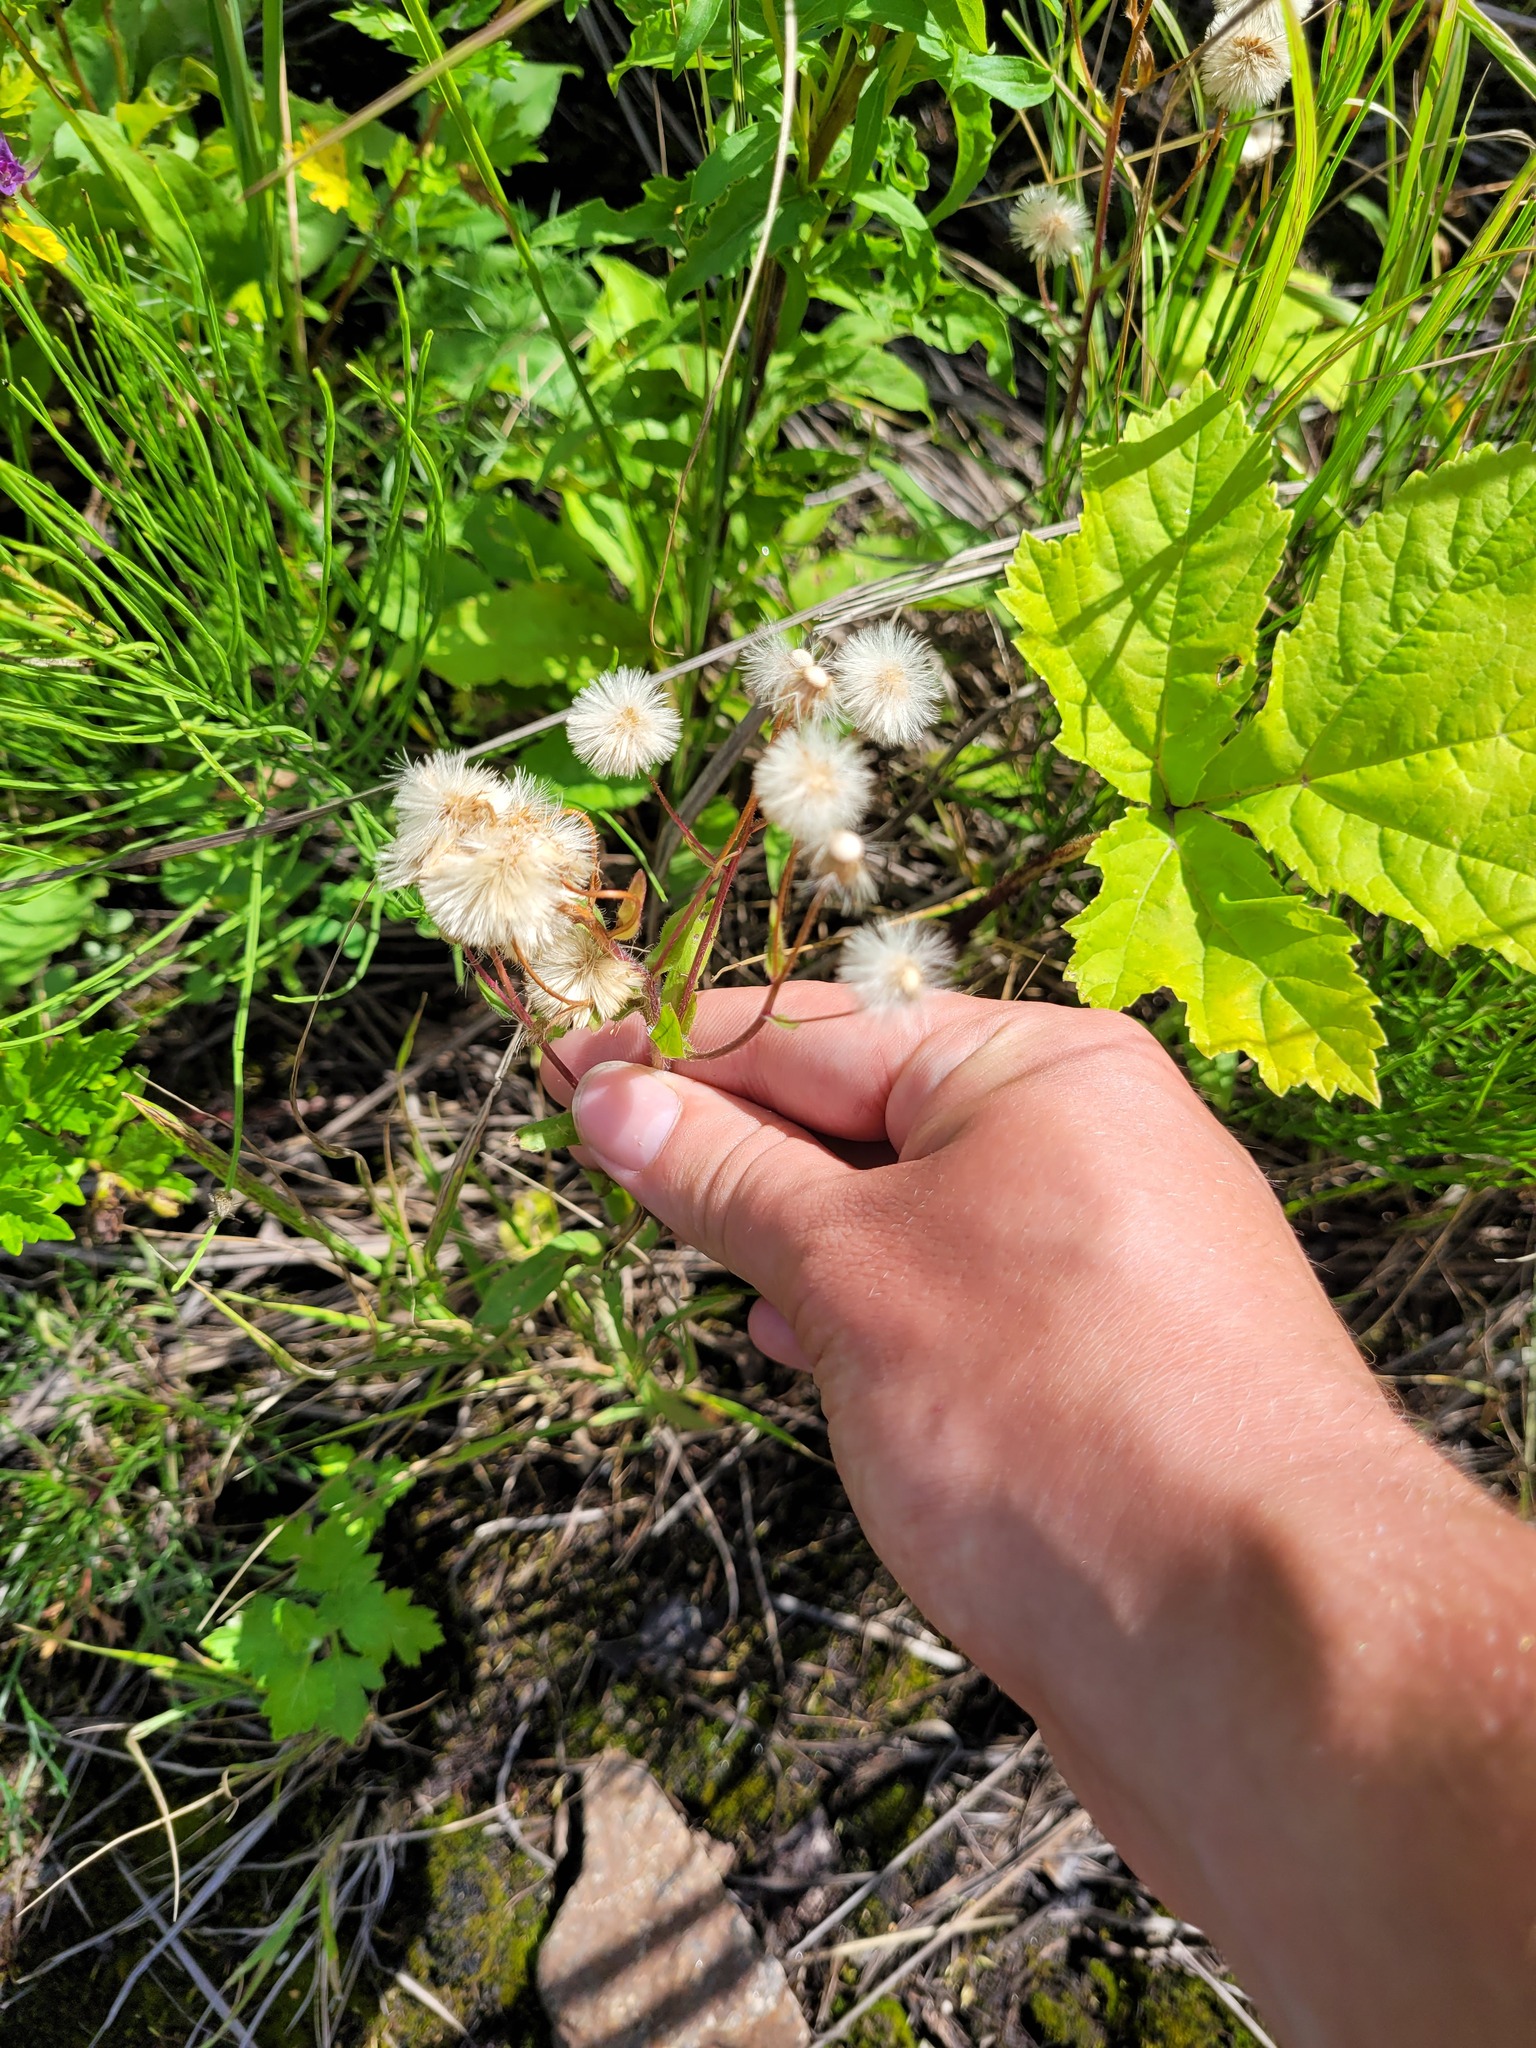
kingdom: Plantae
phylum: Tracheophyta
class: Magnoliopsida
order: Asterales
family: Asteraceae
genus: Erigeron
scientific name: Erigeron acris
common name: Blue fleabane
